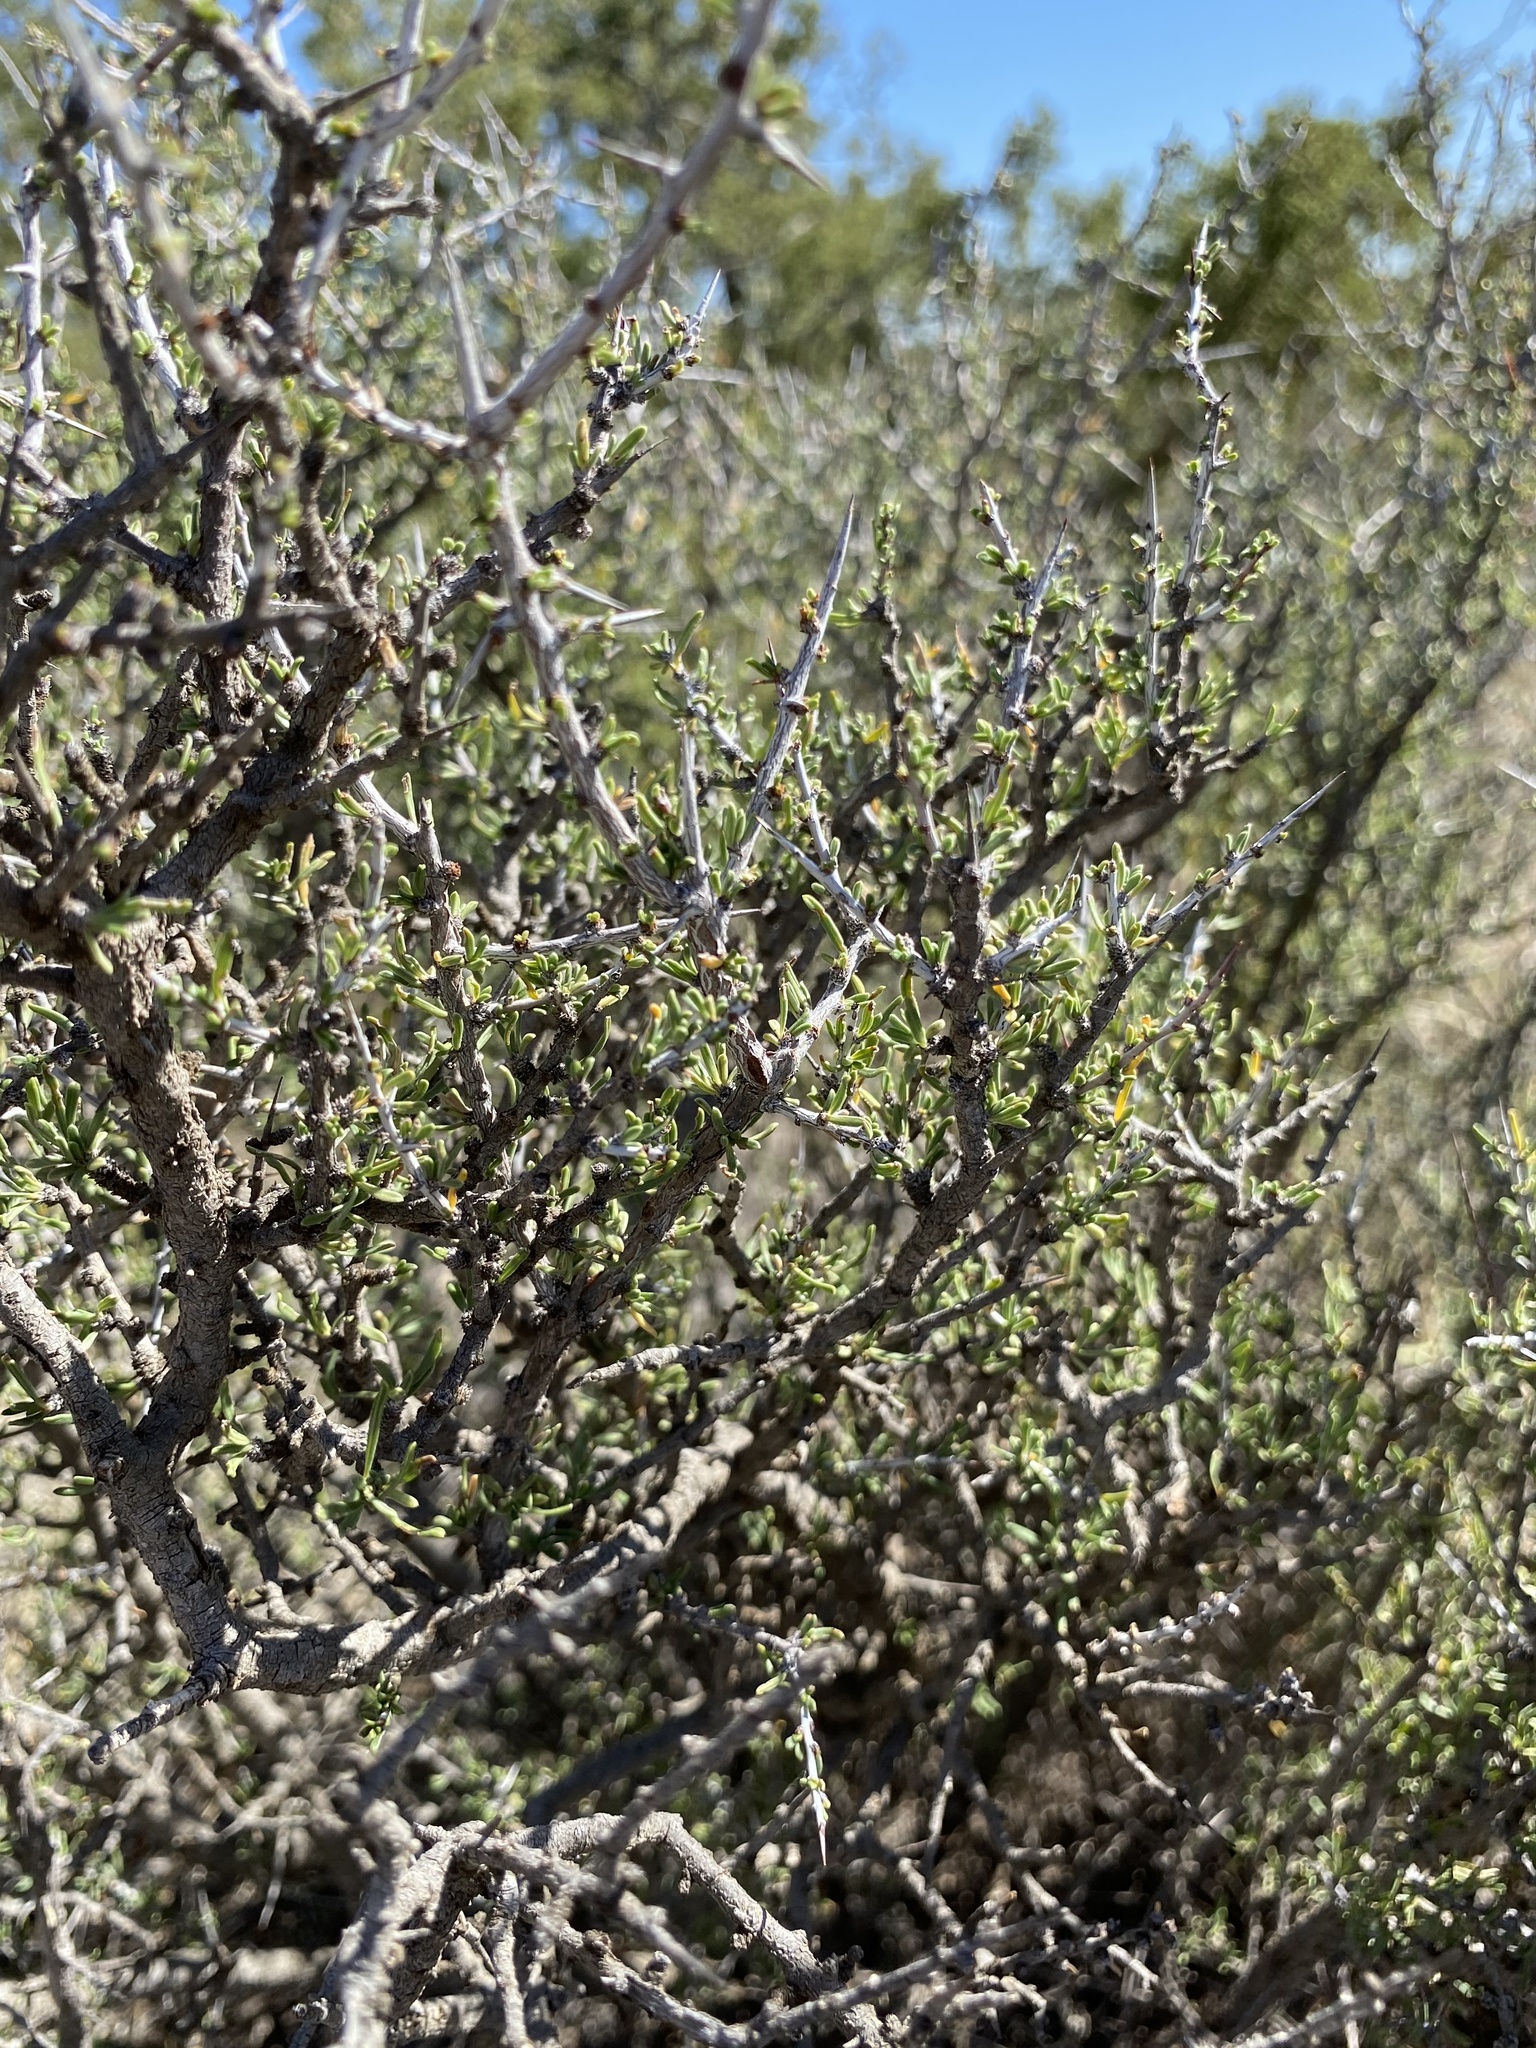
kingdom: Plantae
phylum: Tracheophyta
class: Magnoliopsida
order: Rosales
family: Rhamnaceae
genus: Condalia
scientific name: Condalia ericoides
